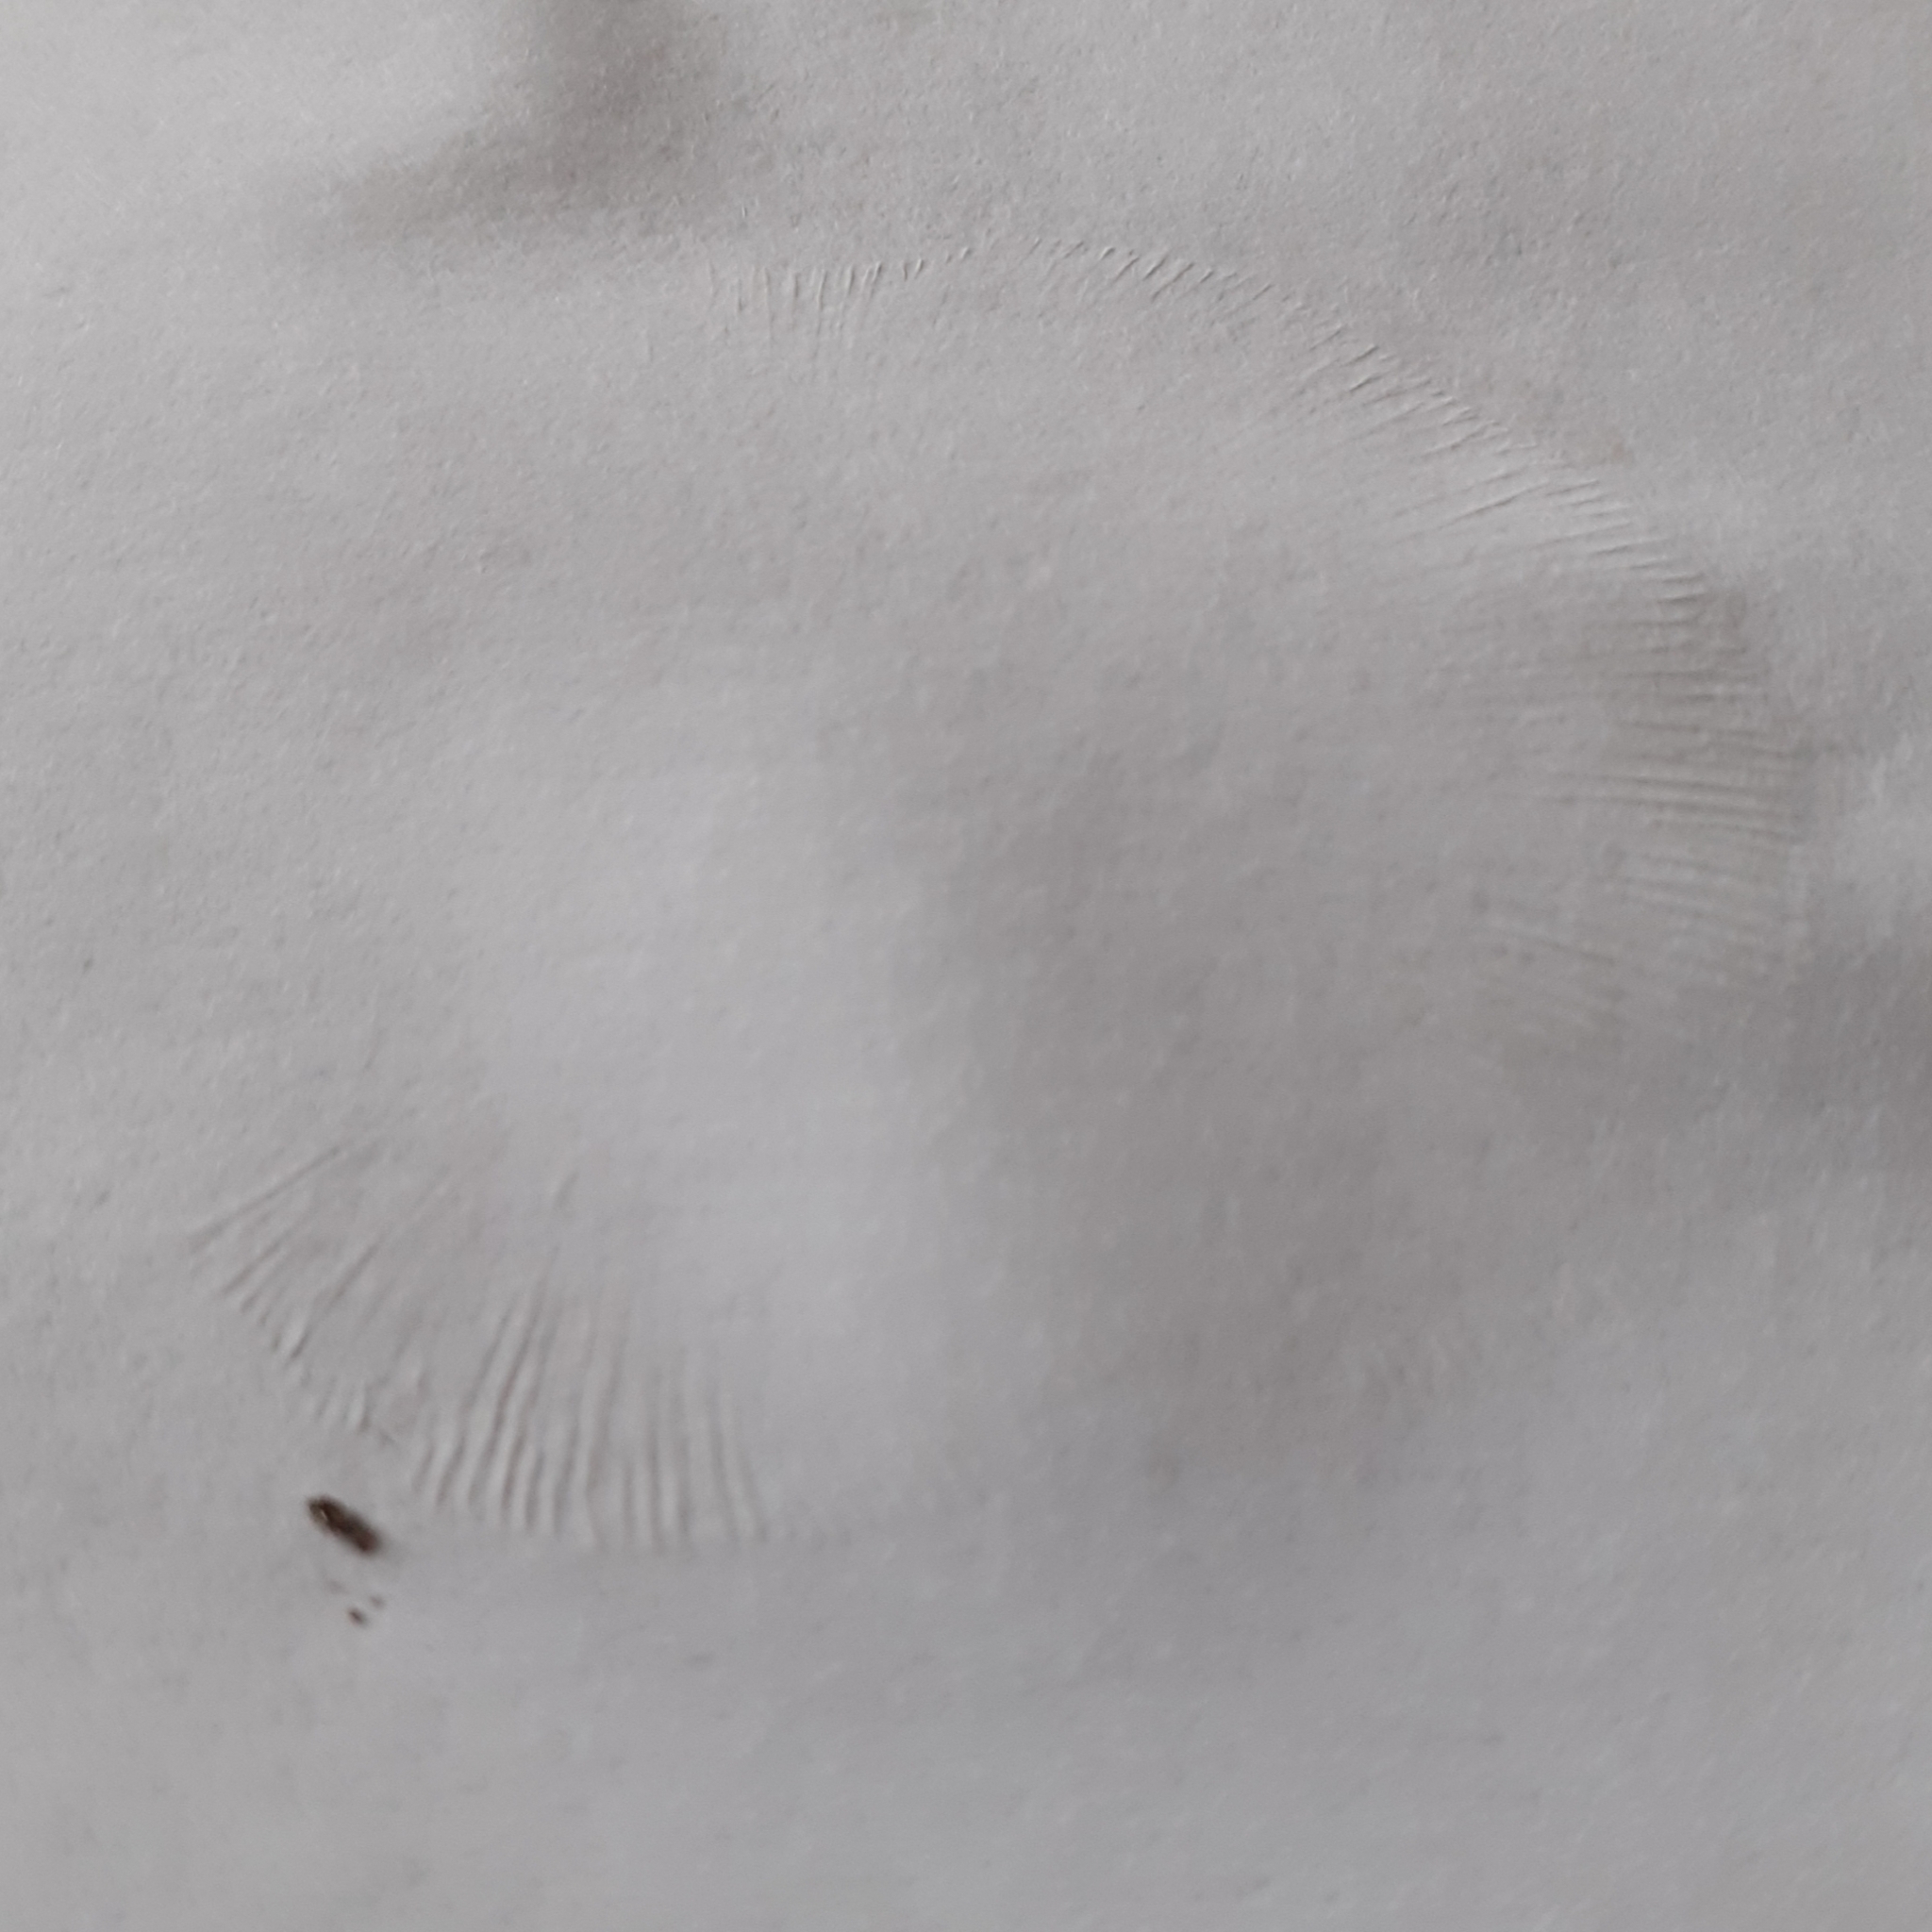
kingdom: Fungi
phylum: Basidiomycota
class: Agaricomycetes
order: Agaricales
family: Lyophyllaceae
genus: Tricholomella
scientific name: Tricholomella constricta
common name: Mealy domecap
